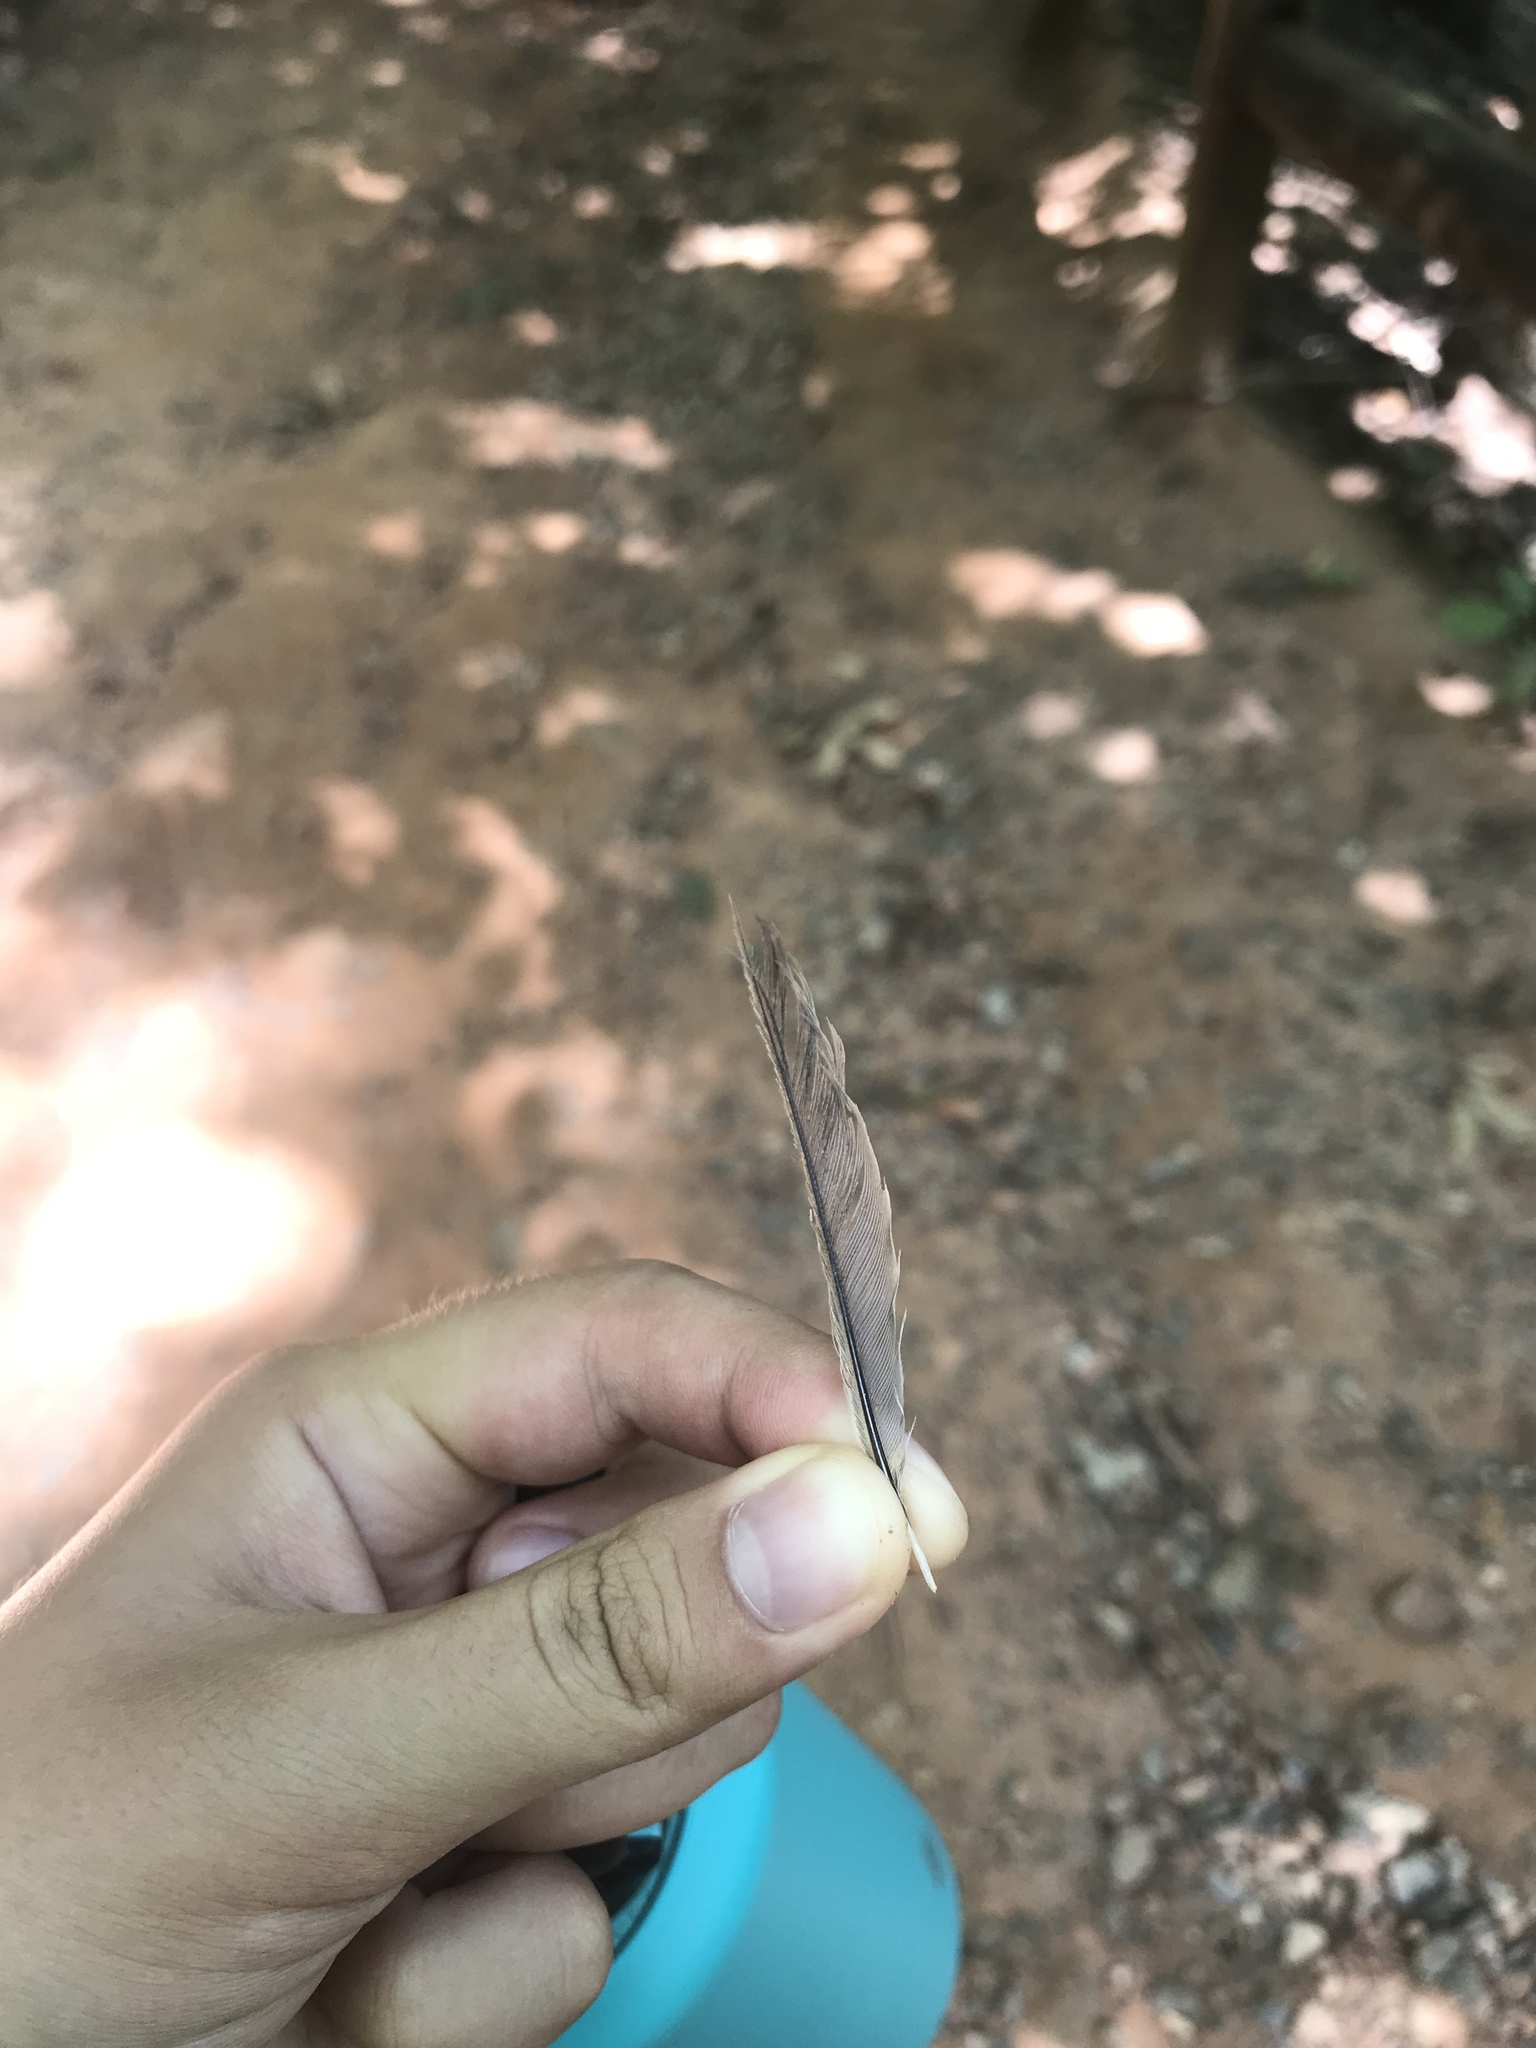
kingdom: Animalia
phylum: Chordata
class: Aves
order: Passeriformes
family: Paridae
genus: Poecile
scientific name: Poecile carolinensis
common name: Carolina chickadee
